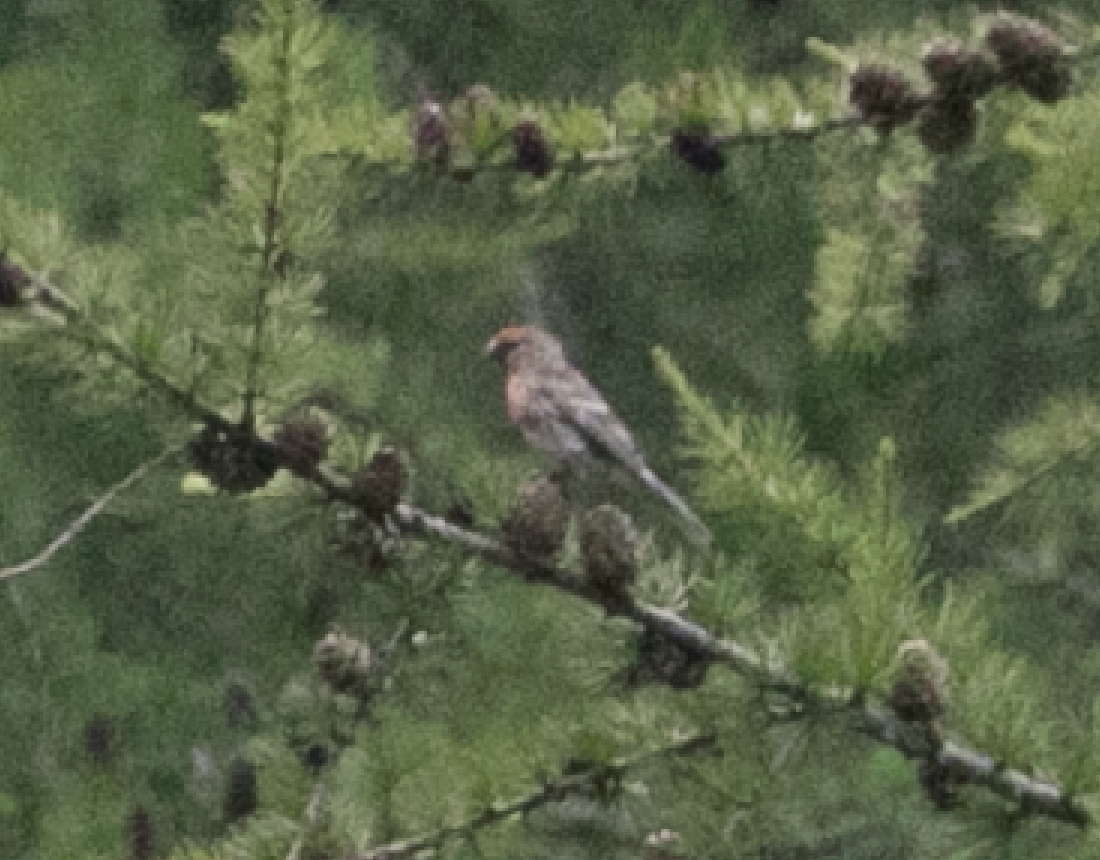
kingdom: Animalia
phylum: Chordata
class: Aves
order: Passeriformes
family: Fringillidae
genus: Acanthis
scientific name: Acanthis flammea
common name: Common redpoll
